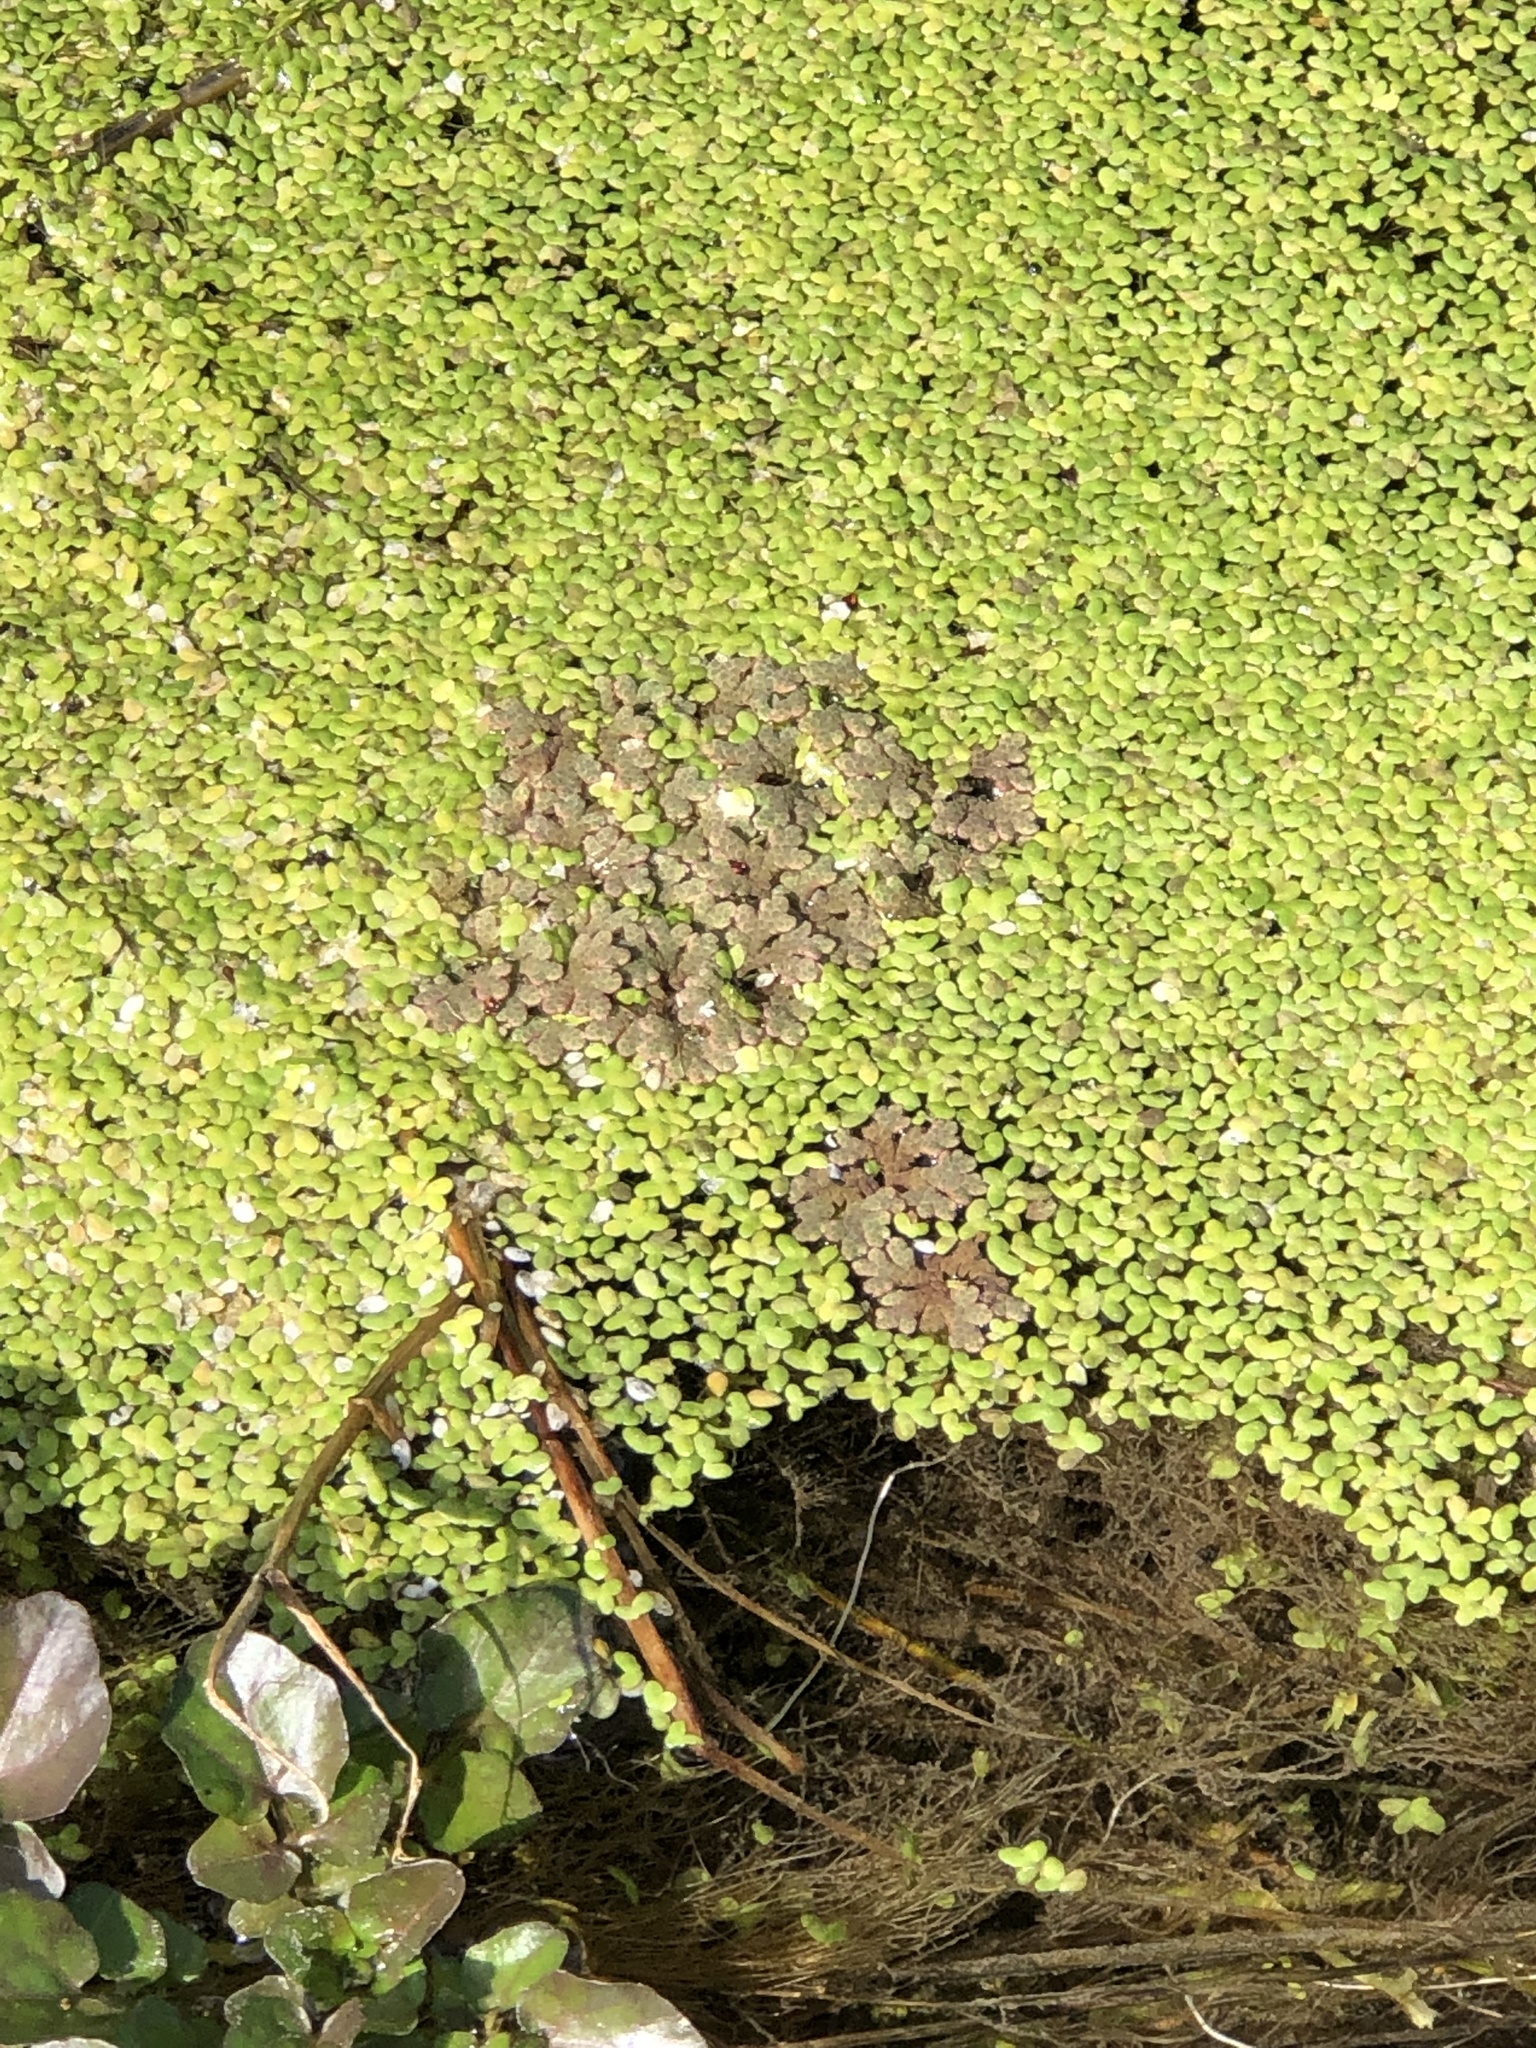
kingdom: Plantae
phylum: Tracheophyta
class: Polypodiopsida
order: Salviniales
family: Salviniaceae
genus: Azolla
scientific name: Azolla rubra
